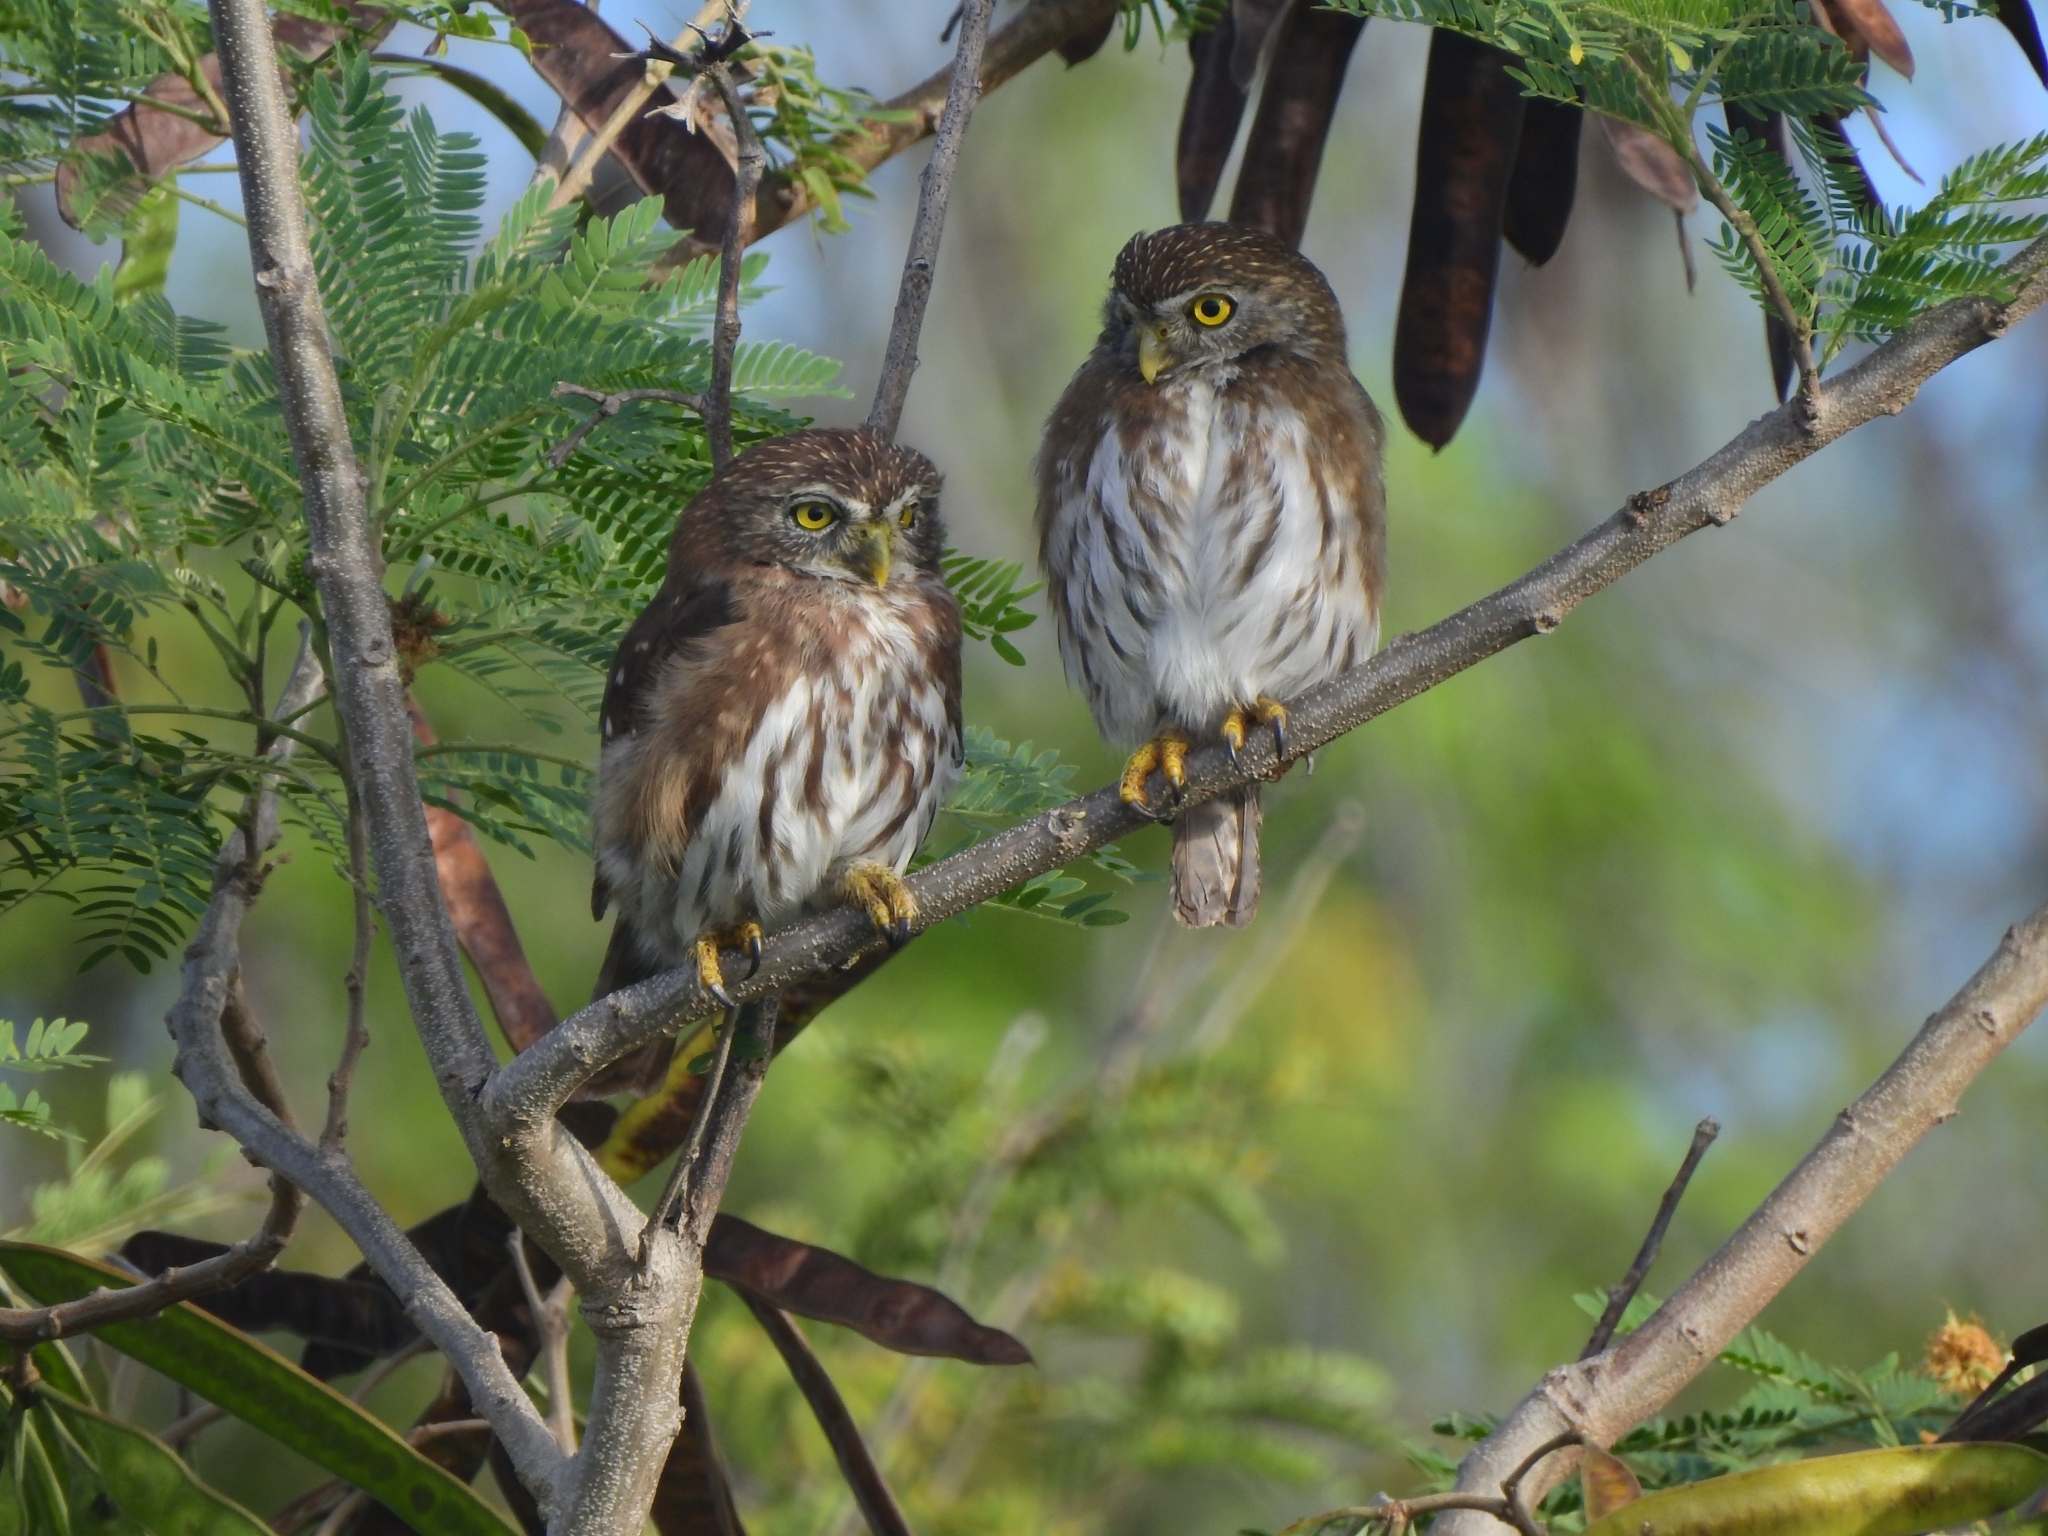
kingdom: Animalia
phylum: Chordata
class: Aves
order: Strigiformes
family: Strigidae
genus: Glaucidium
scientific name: Glaucidium brasilianum
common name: Ferruginous pygmy-owl
